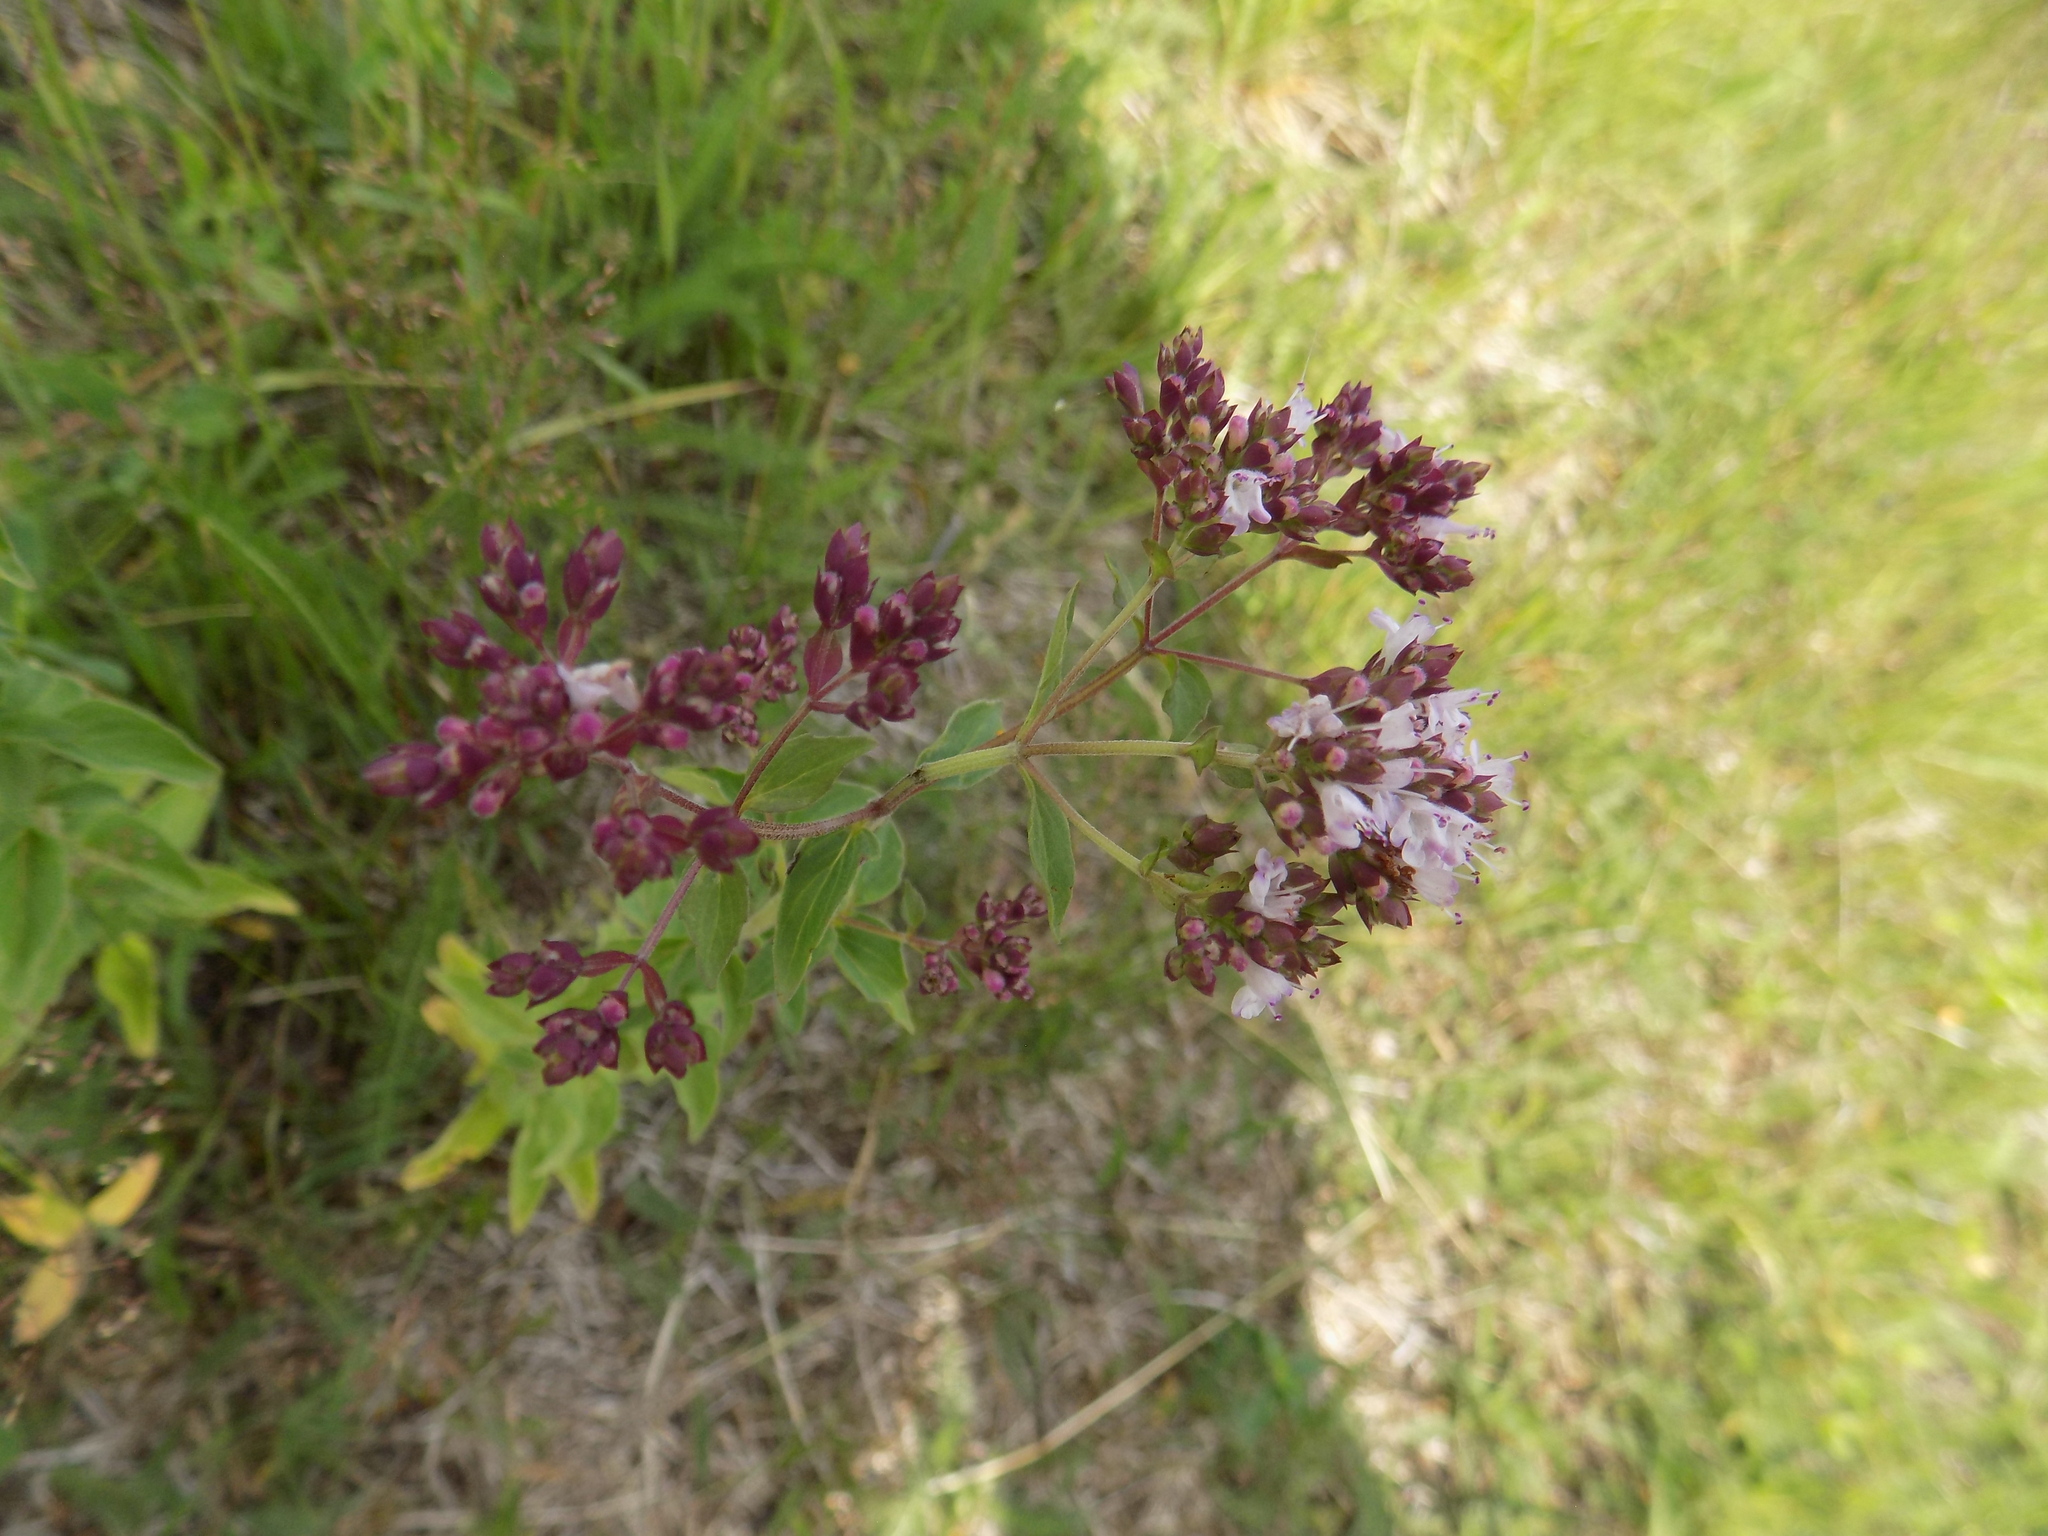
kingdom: Plantae
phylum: Tracheophyta
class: Magnoliopsida
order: Lamiales
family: Lamiaceae
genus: Origanum
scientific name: Origanum vulgare
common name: Wild marjoram
